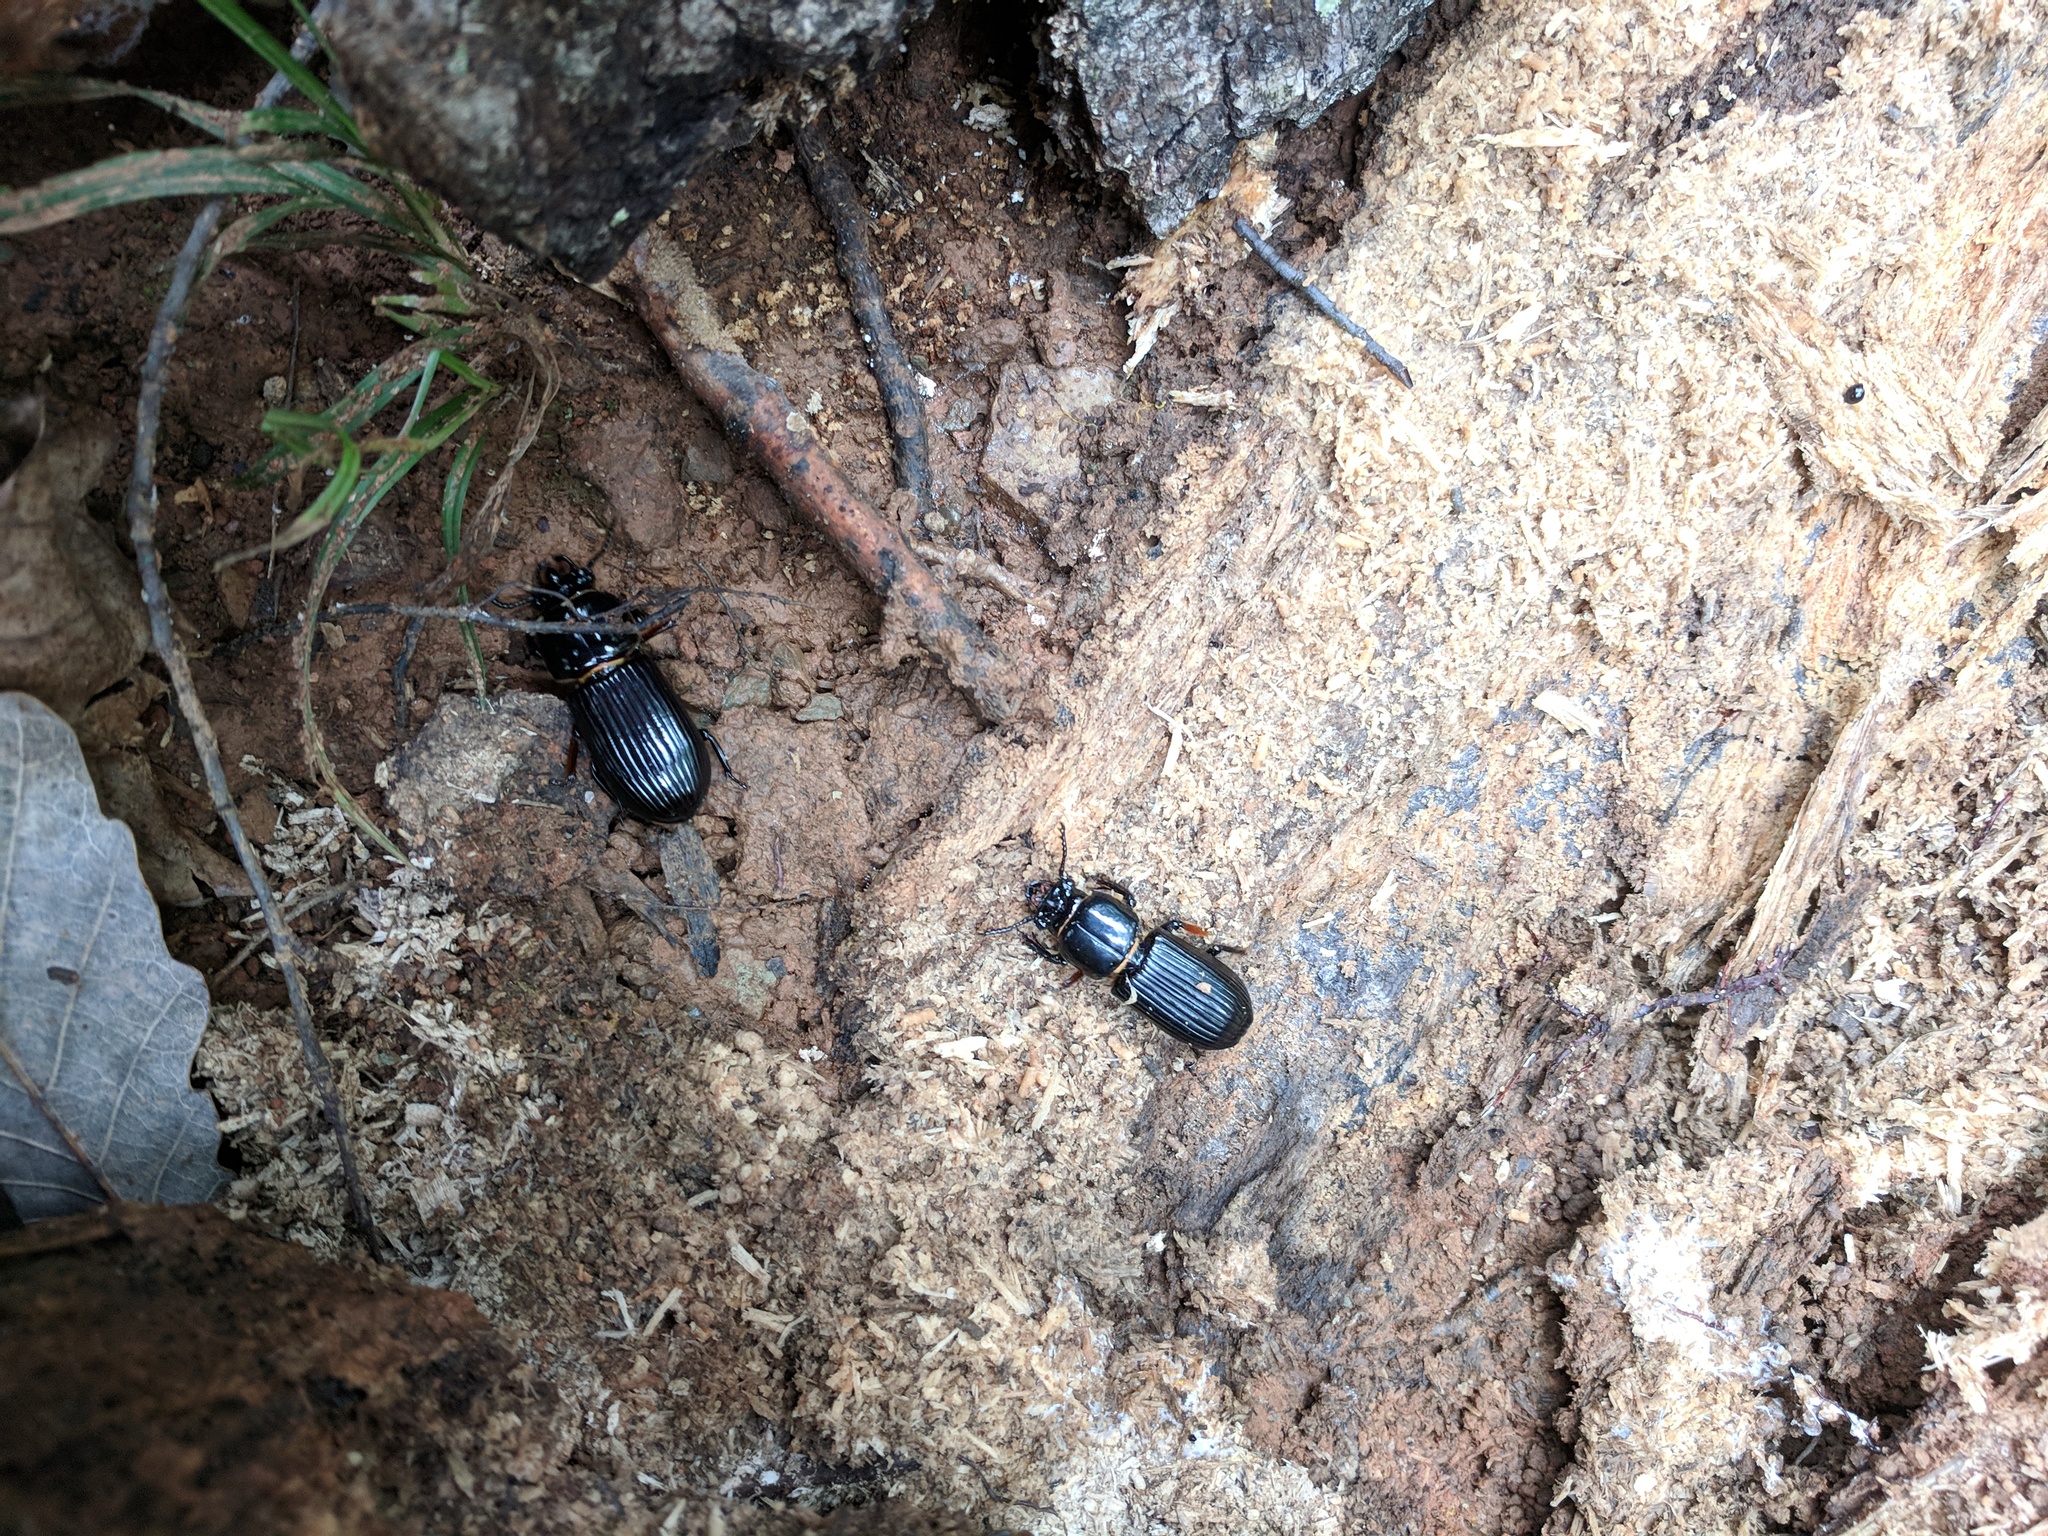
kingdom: Animalia
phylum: Arthropoda
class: Insecta
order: Coleoptera
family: Passalidae
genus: Odontotaenius
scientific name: Odontotaenius disjunctus
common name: Patent leather beetle
